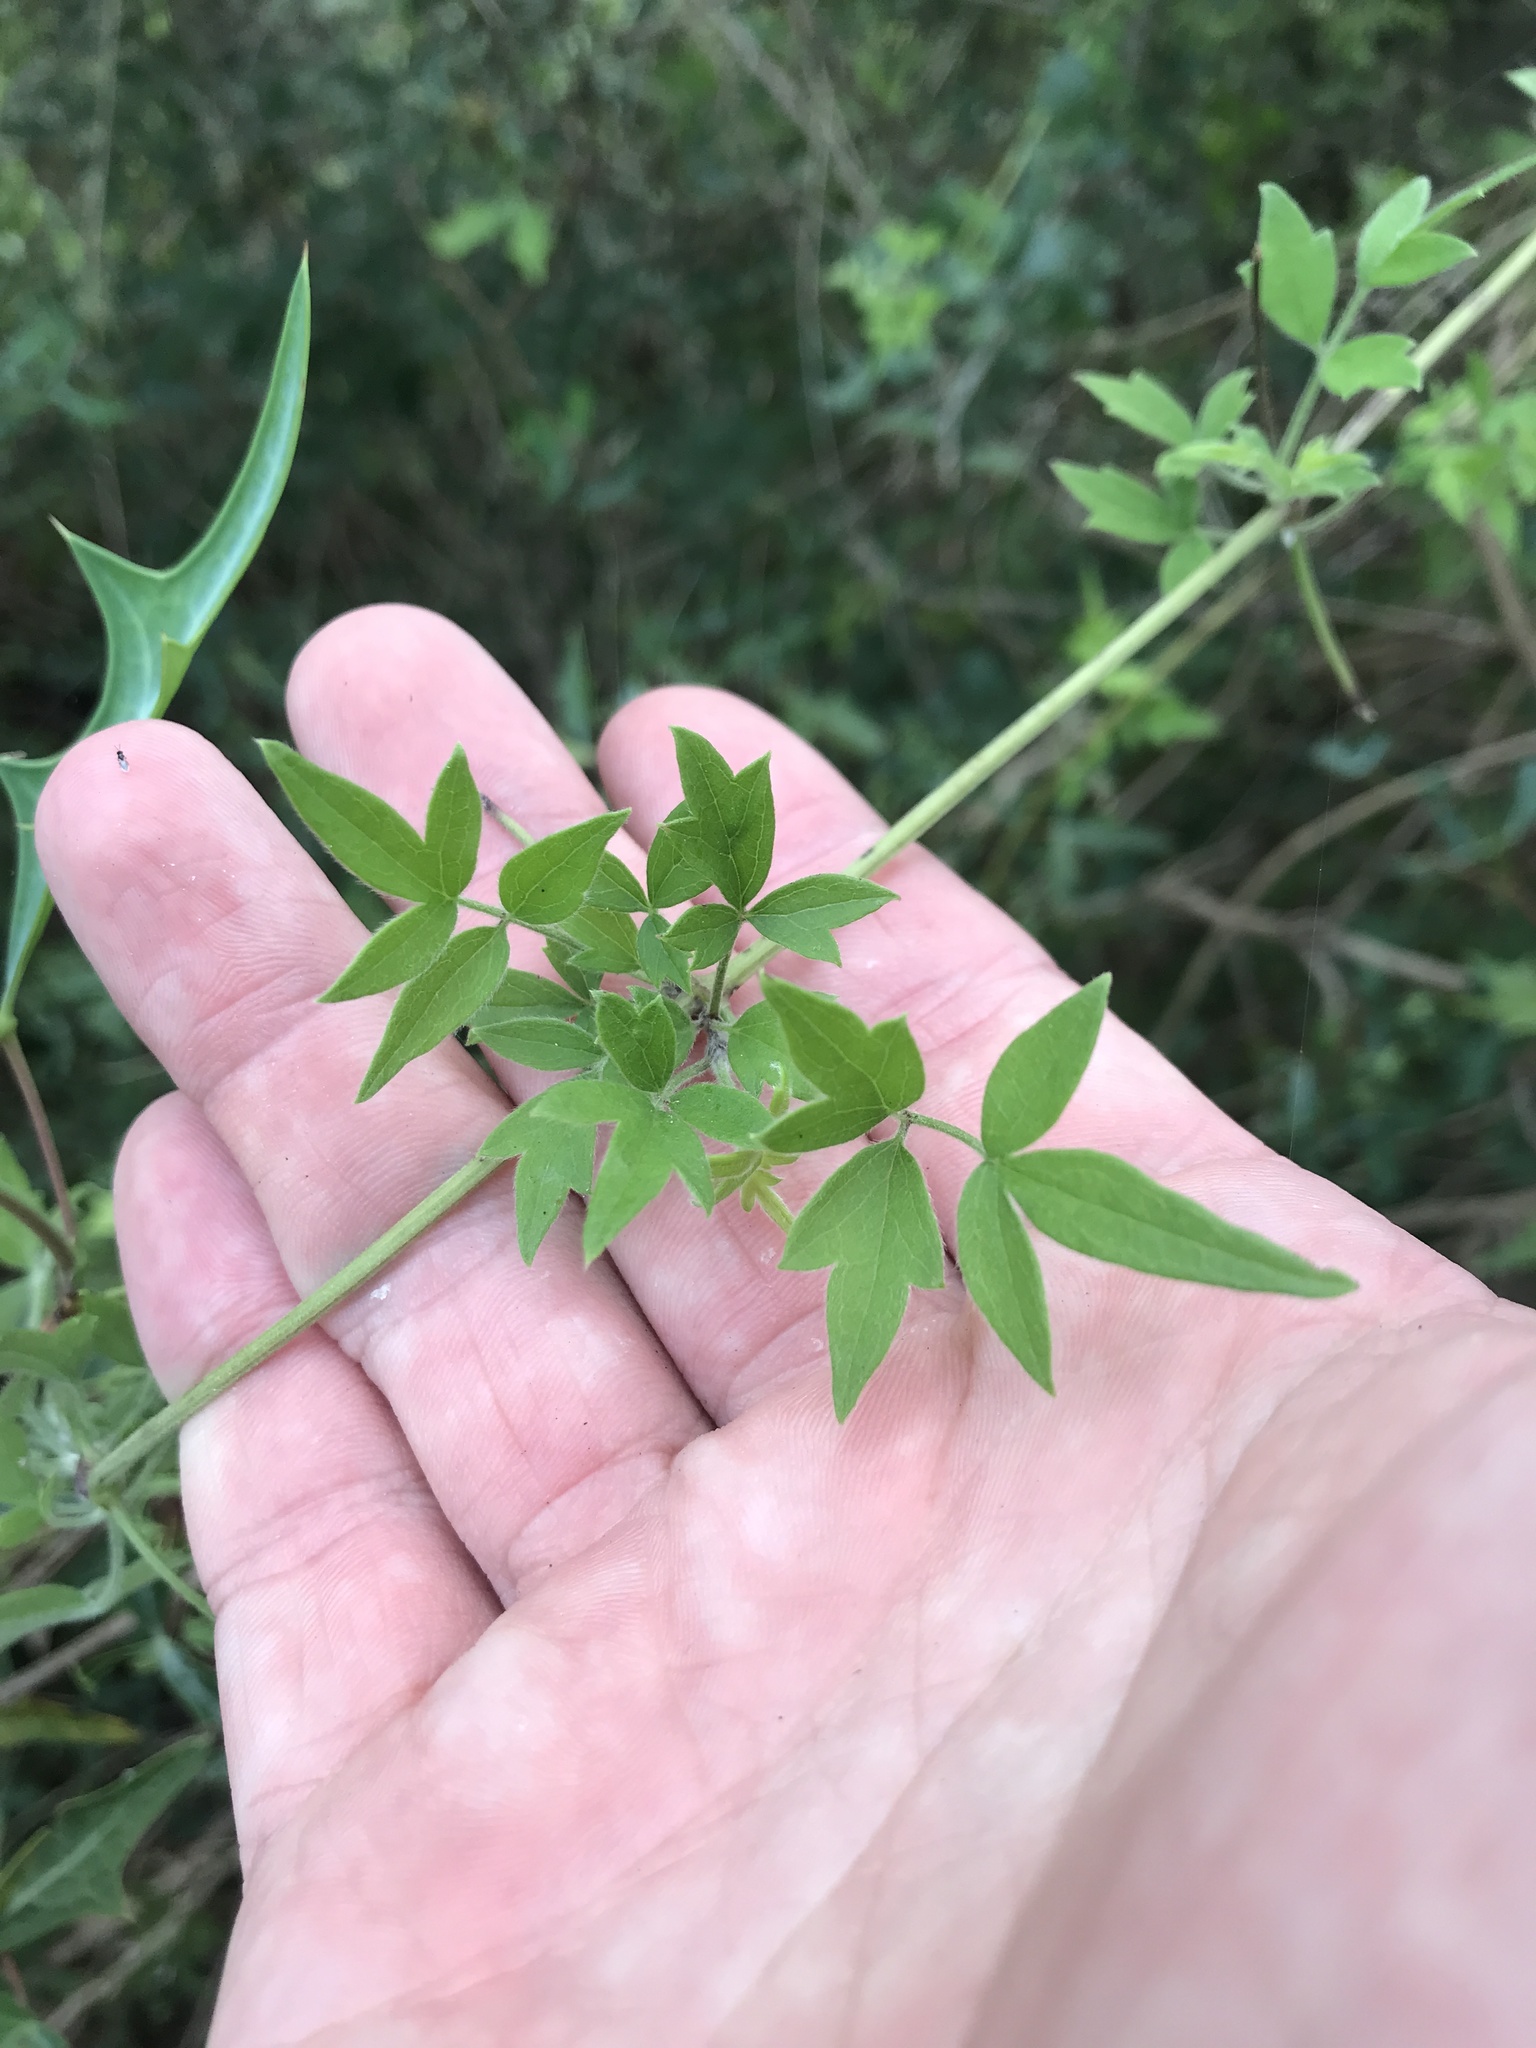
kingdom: Plantae
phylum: Tracheophyta
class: Magnoliopsida
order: Ranunculales
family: Ranunculaceae
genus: Clematis
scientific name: Clematis drummondii
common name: Texas virgin's bower
